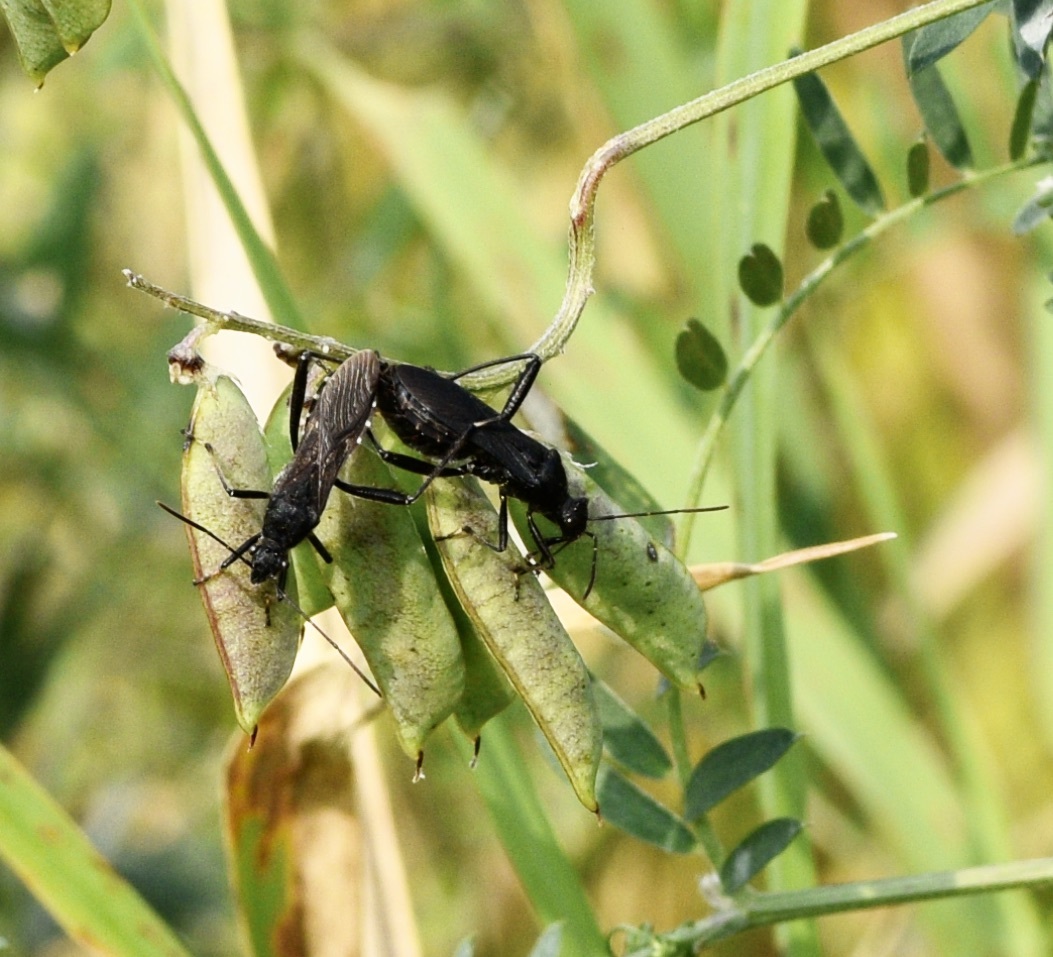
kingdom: Animalia
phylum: Arthropoda
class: Insecta
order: Hemiptera
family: Alydidae
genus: Alydus
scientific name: Alydus eurinus
